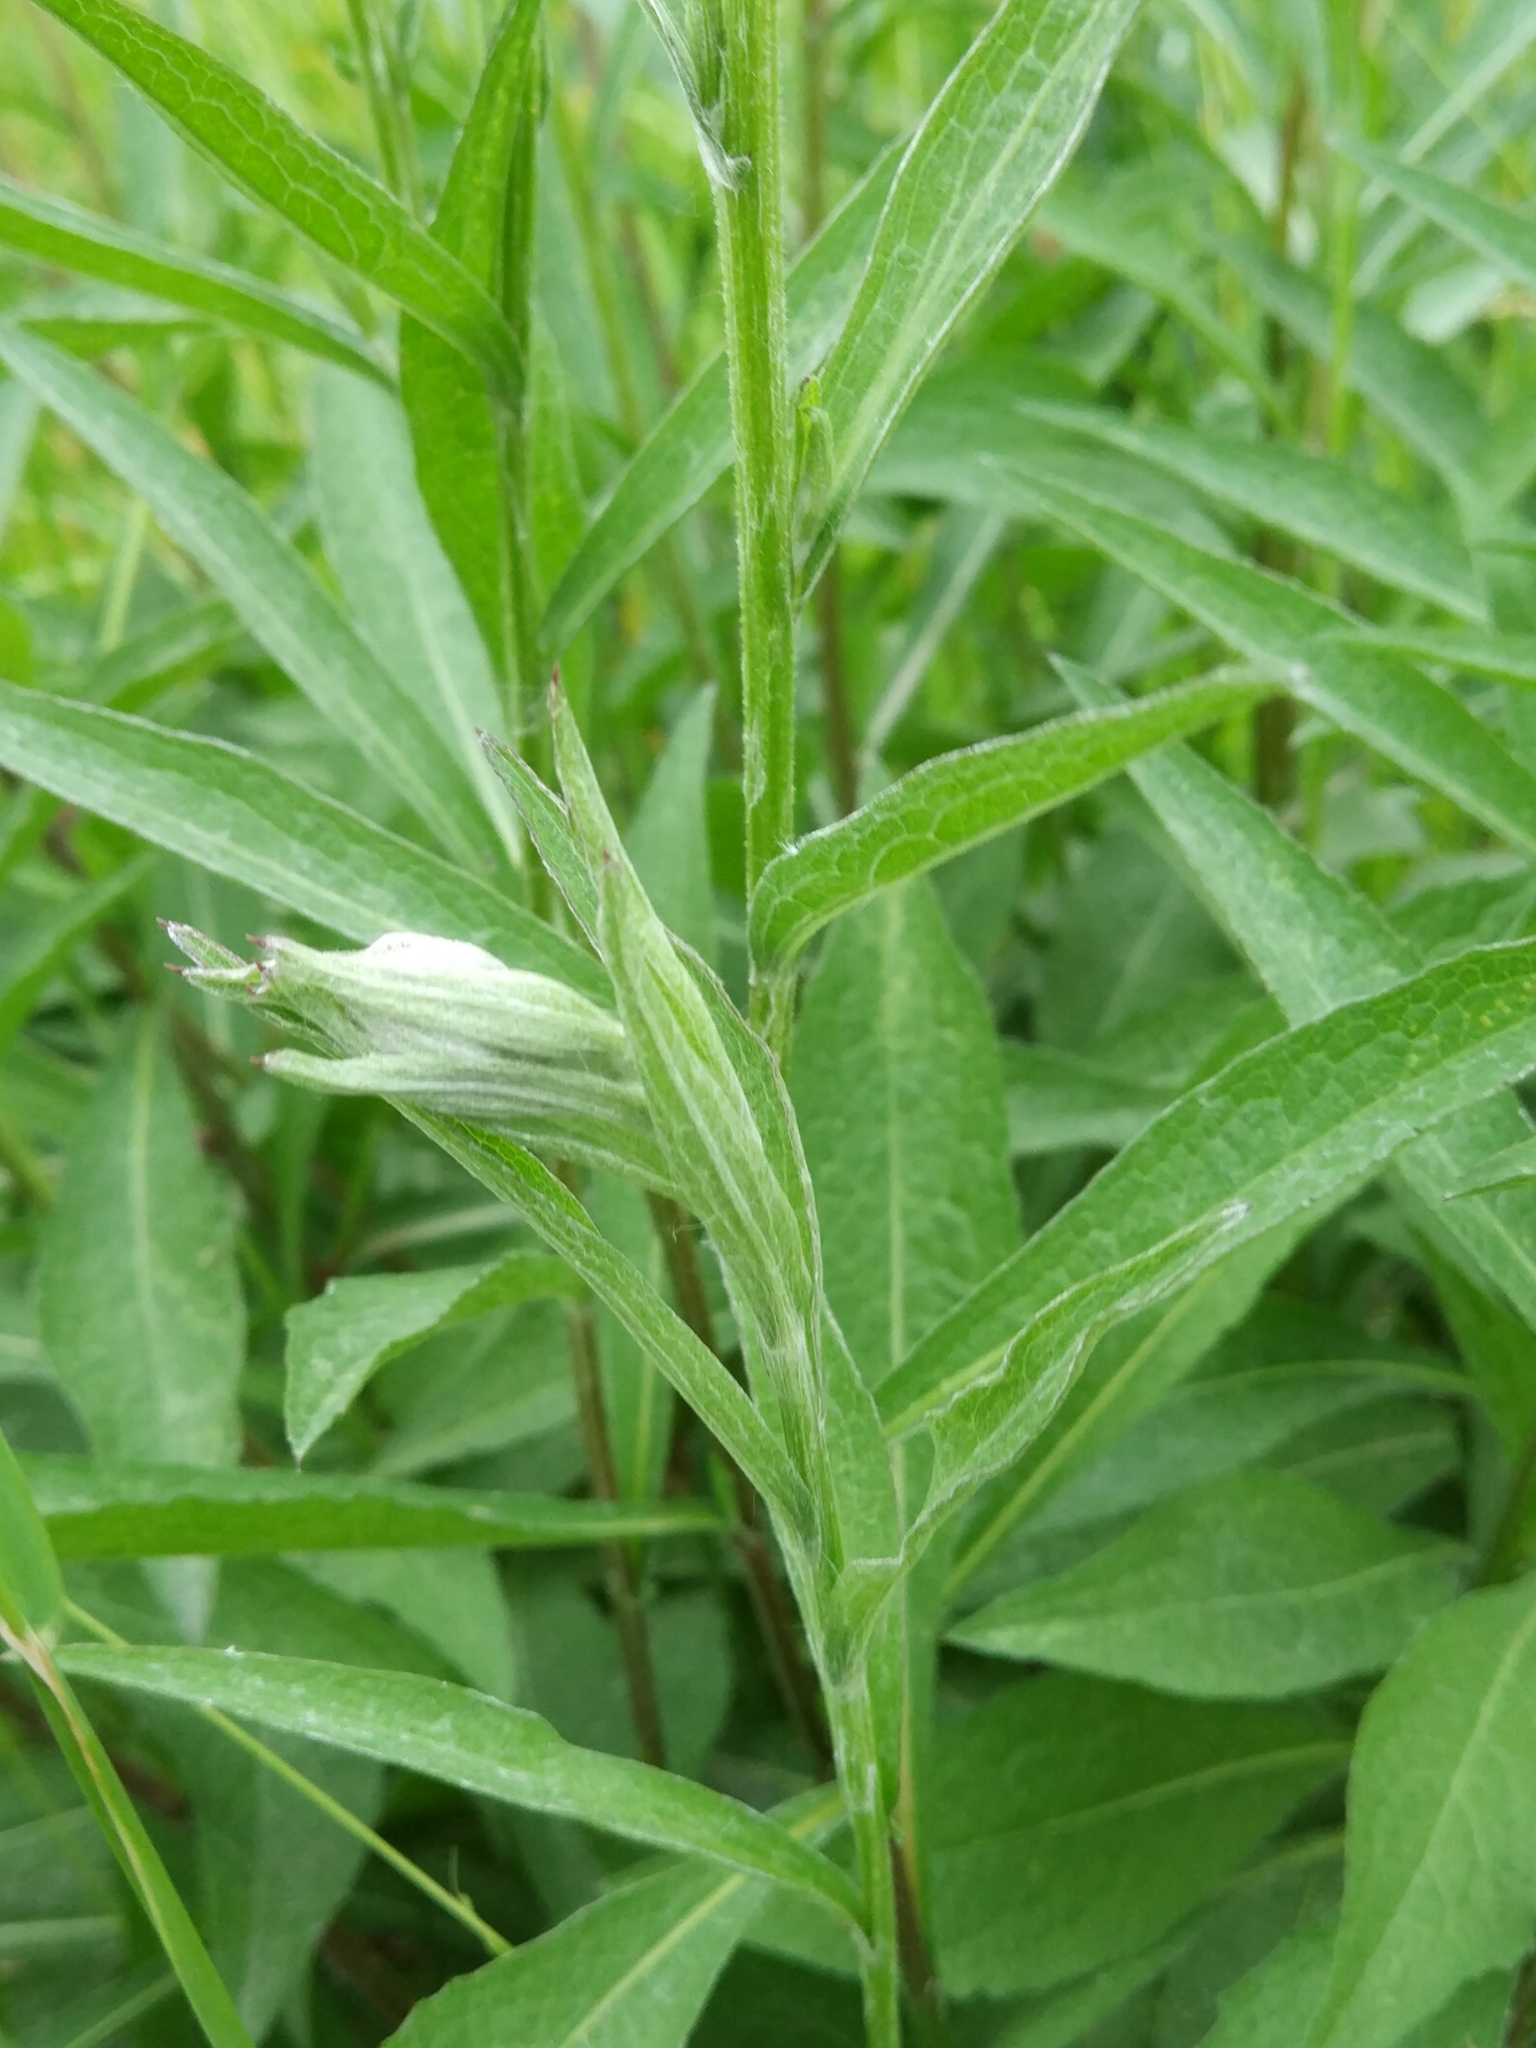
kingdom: Plantae
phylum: Tracheophyta
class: Magnoliopsida
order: Asterales
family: Asteraceae
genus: Centaurea
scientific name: Centaurea jacea
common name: Brown knapweed
